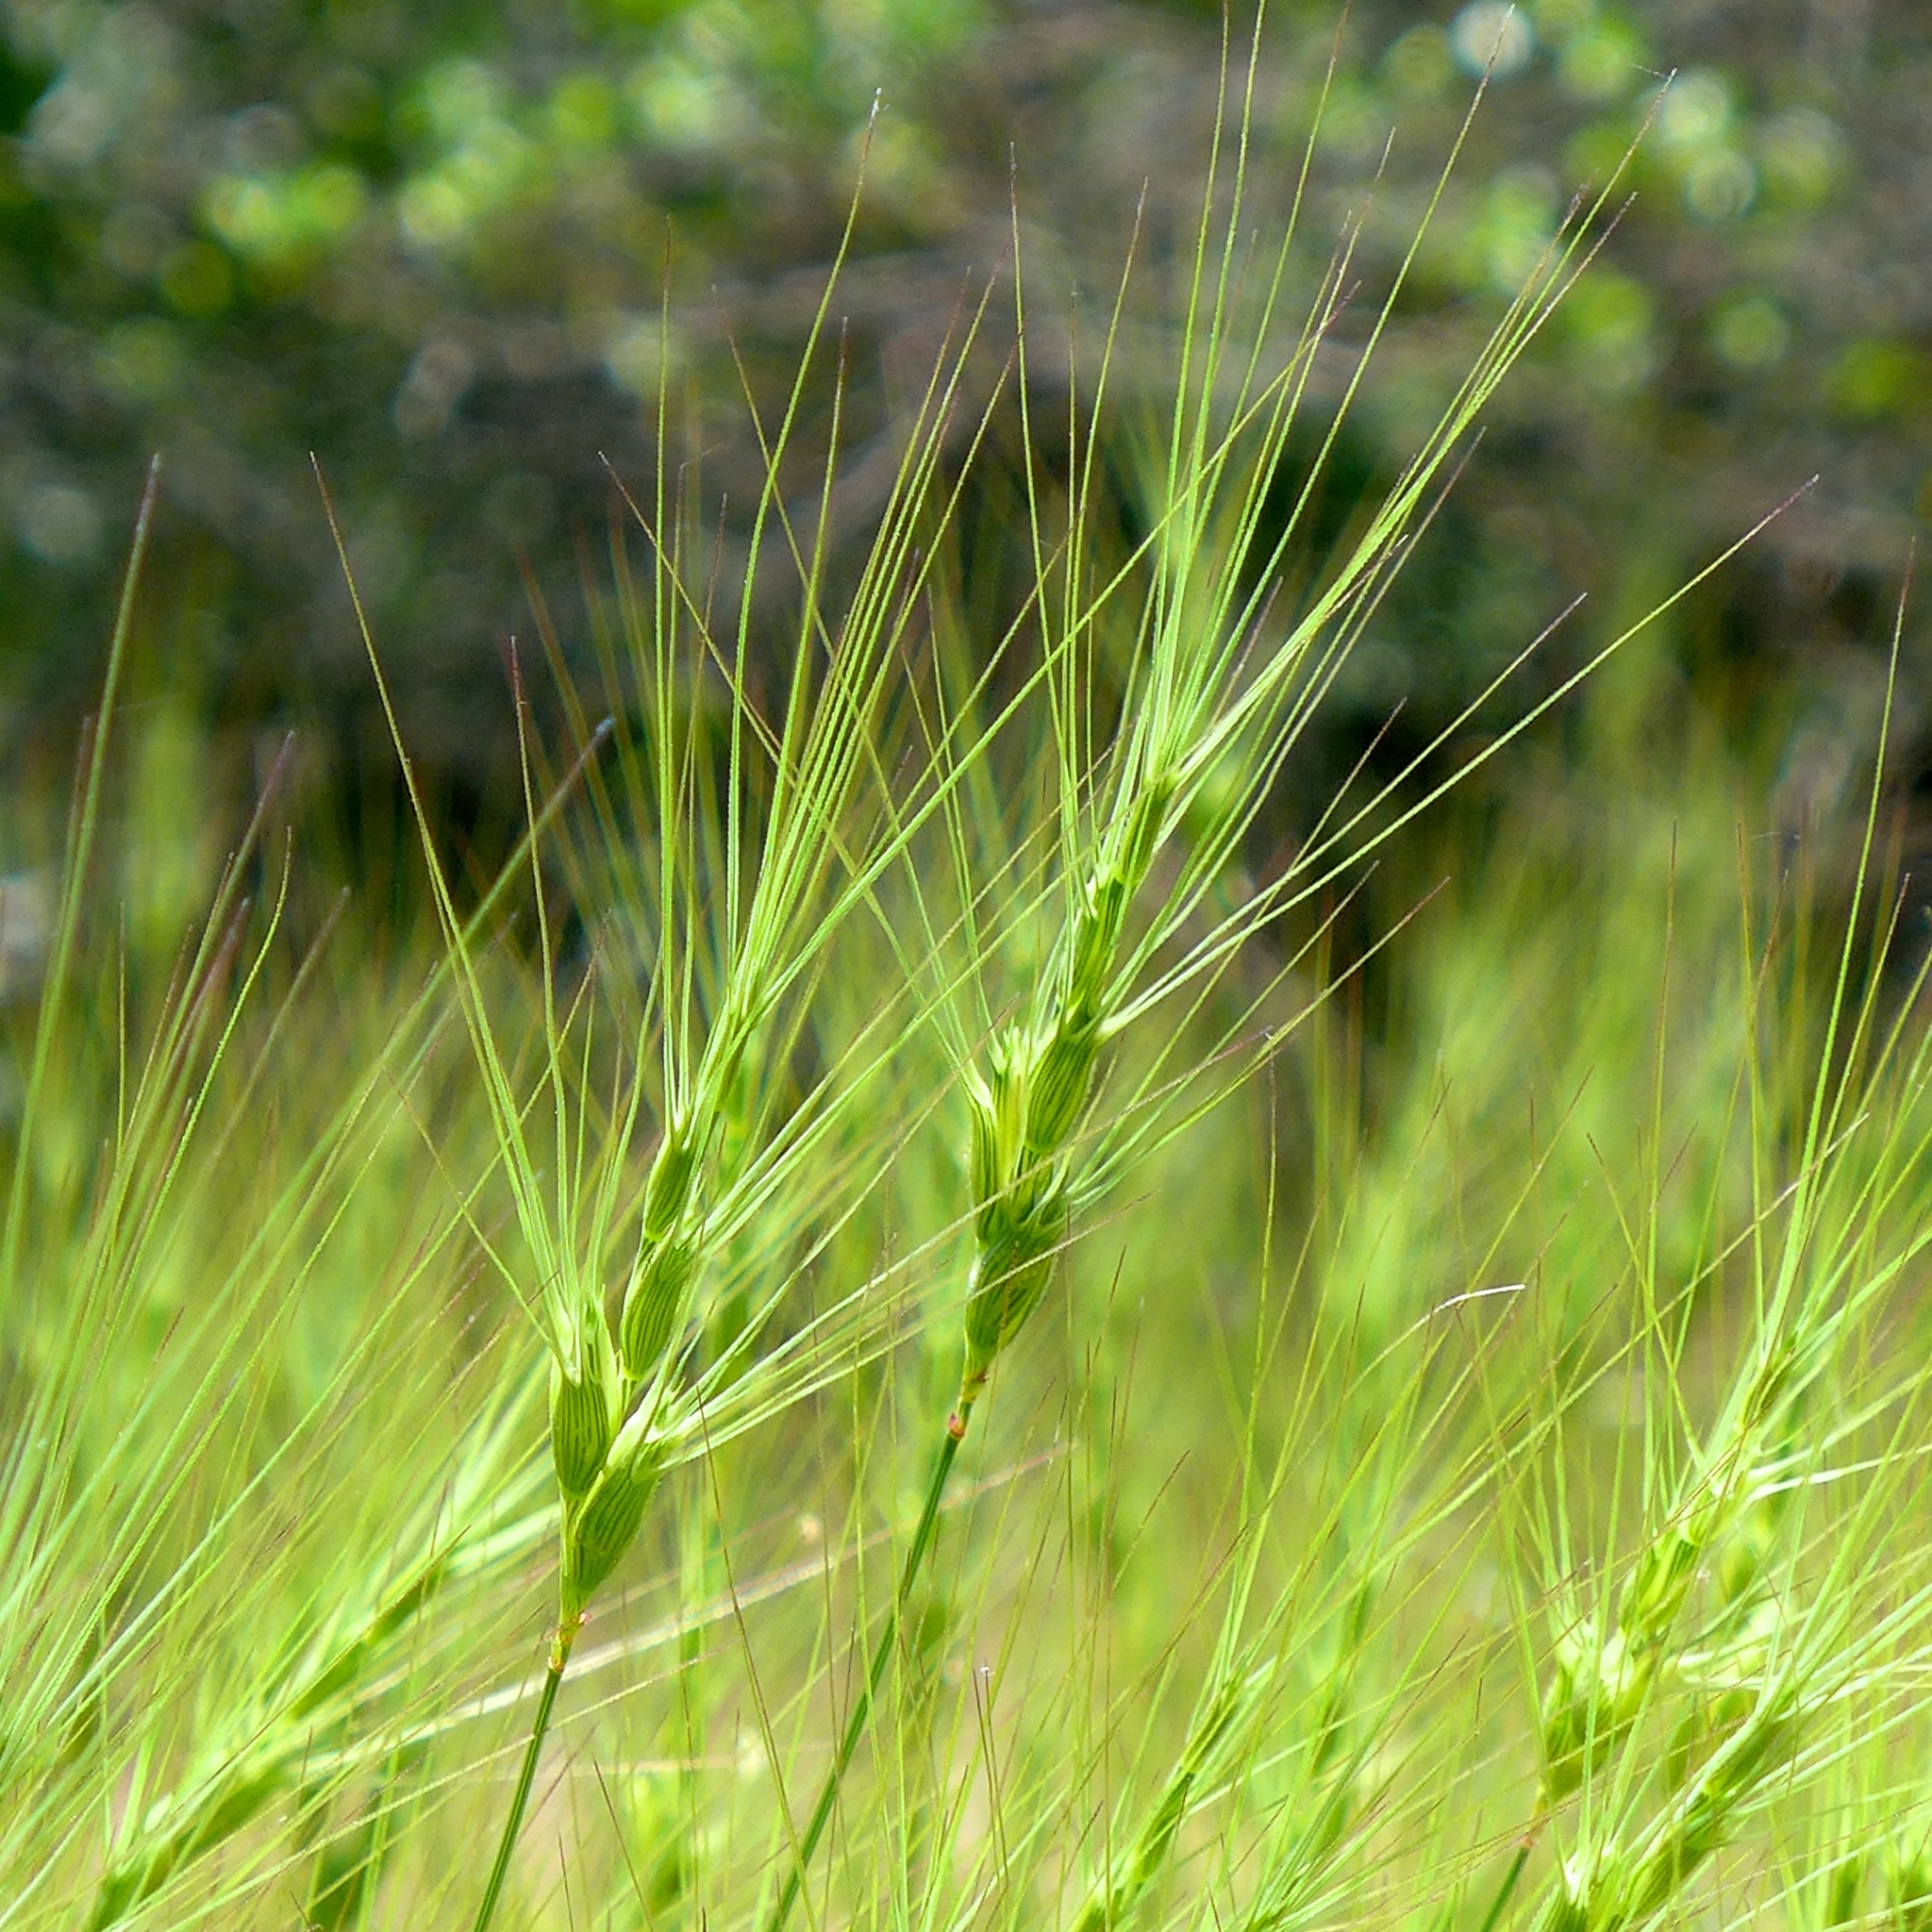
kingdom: Plantae
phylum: Tracheophyta
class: Liliopsida
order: Poales
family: Poaceae
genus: Aegilops
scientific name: Aegilops triuncialis
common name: Barb goat grass
